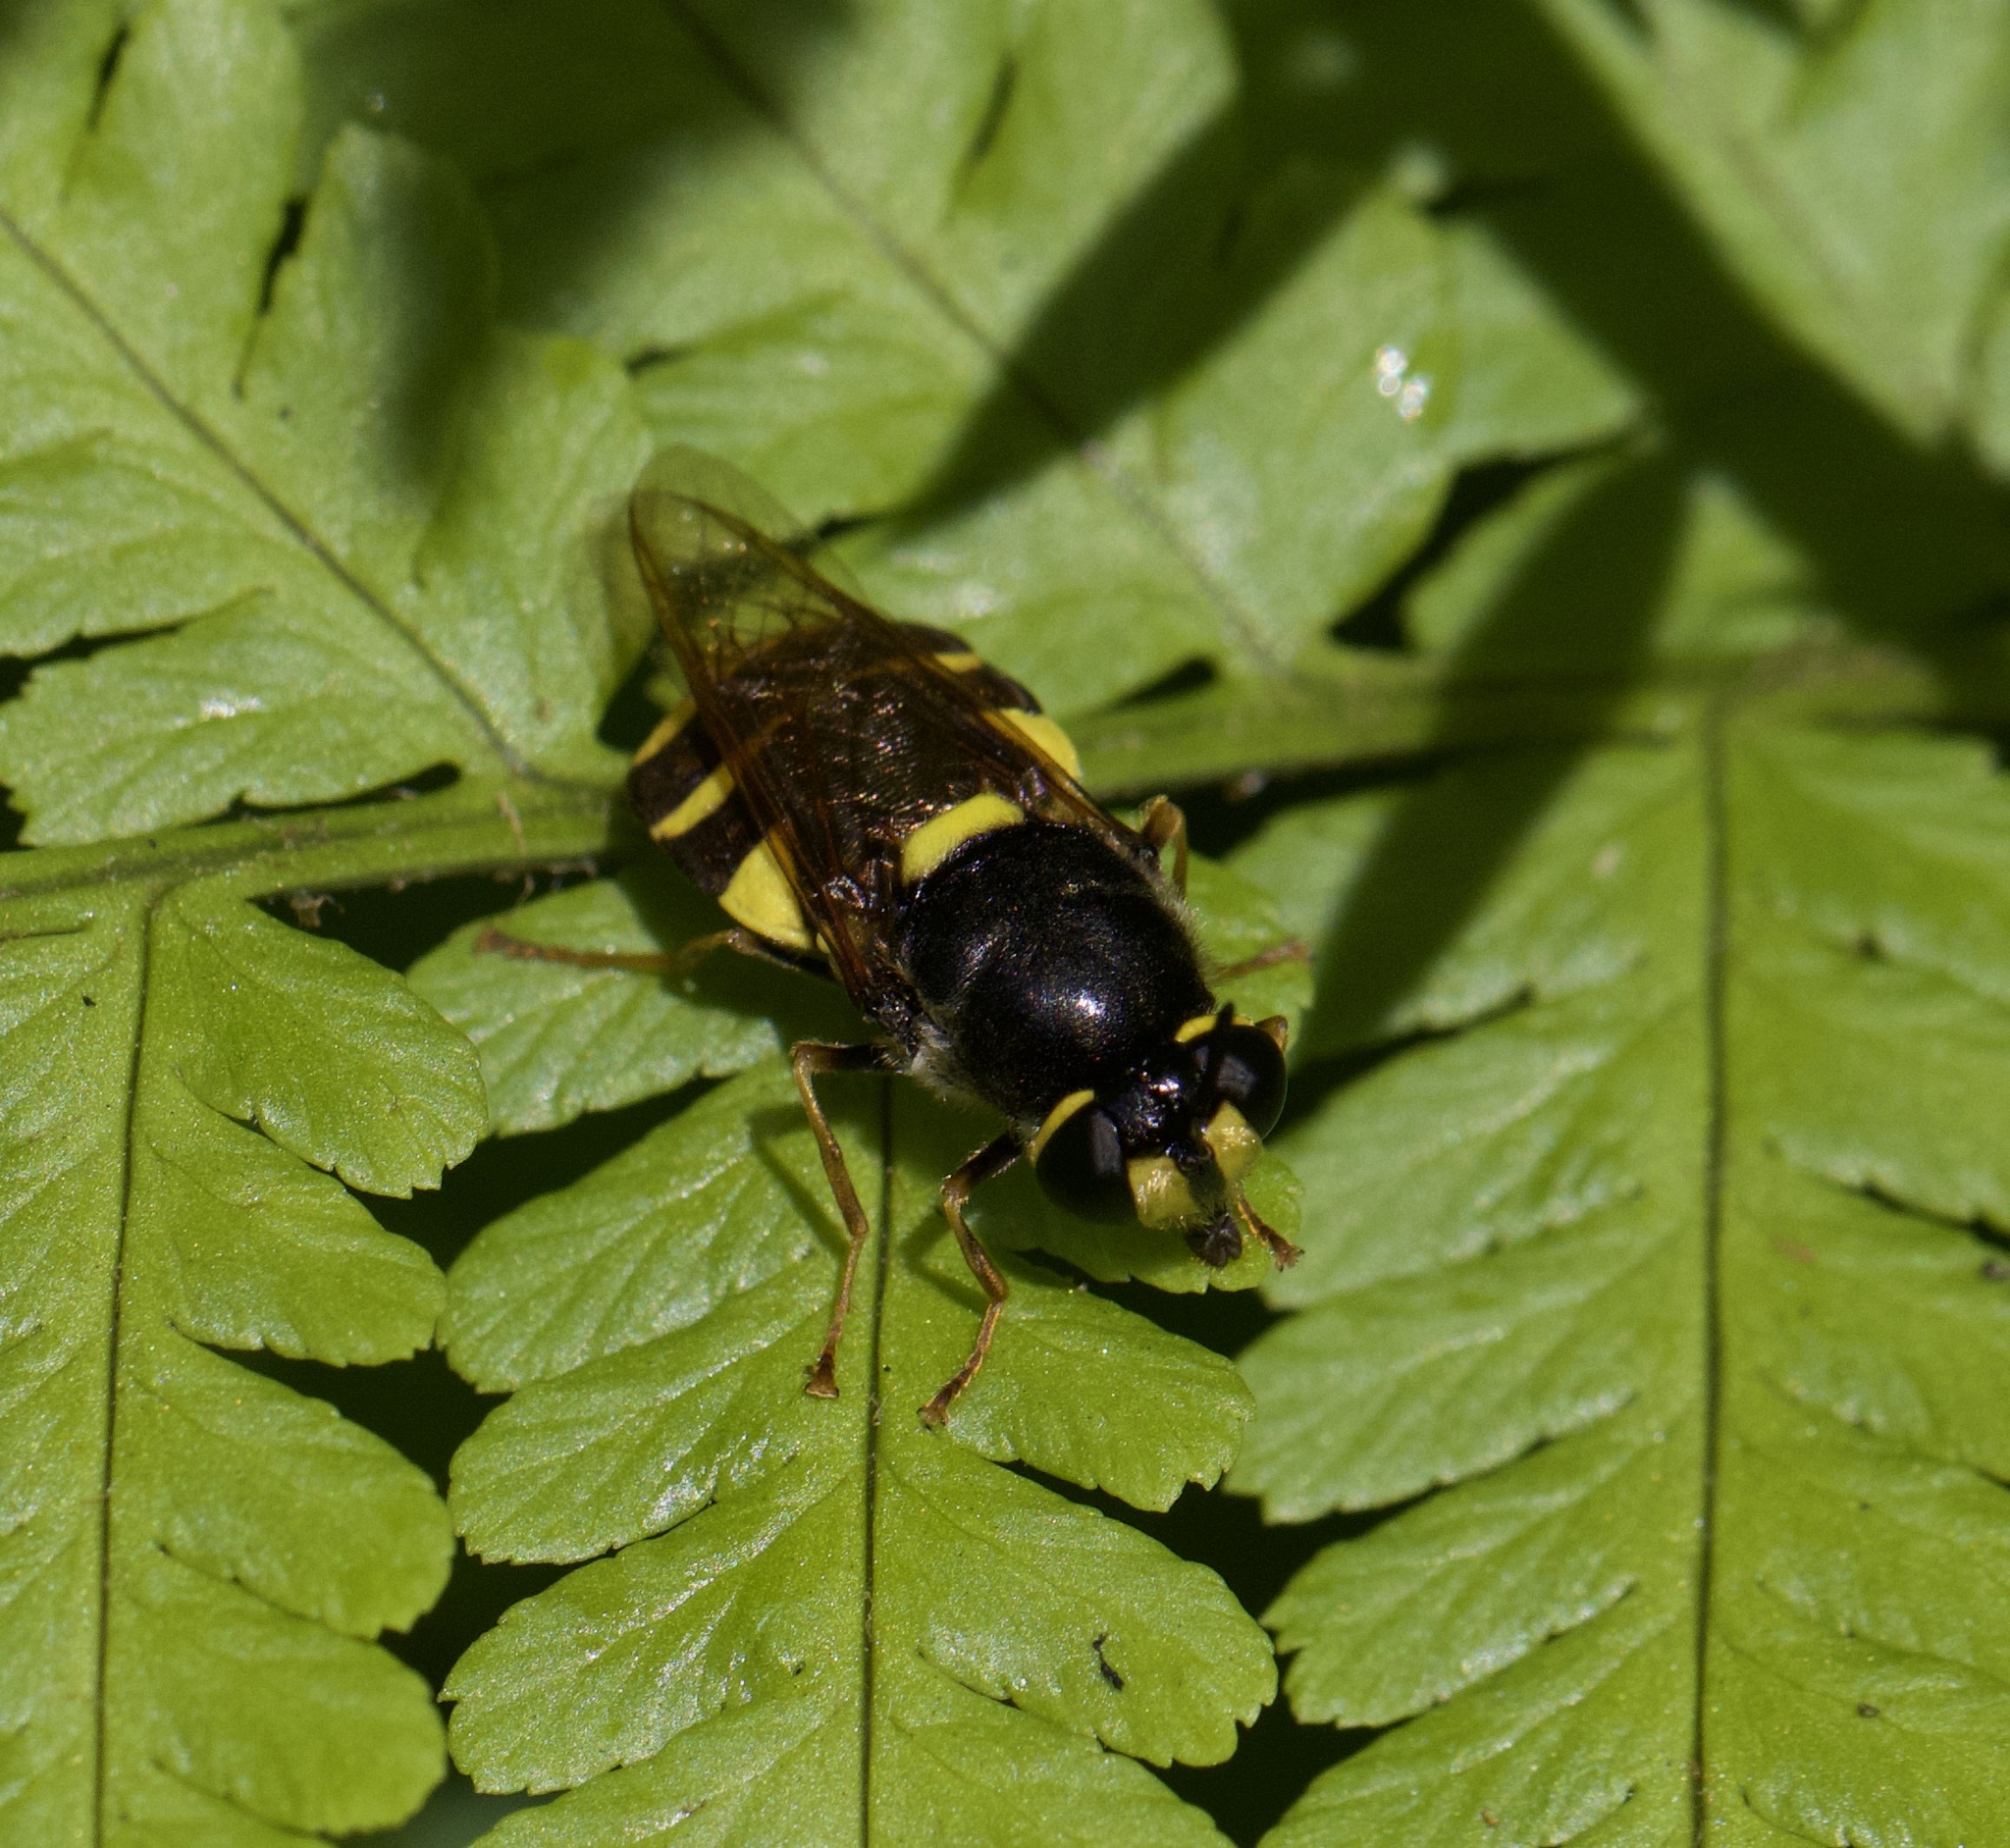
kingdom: Animalia
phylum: Arthropoda
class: Insecta
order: Diptera
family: Stratiomyidae
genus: Stratiomys
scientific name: Stratiomys potamida
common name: Banded general
